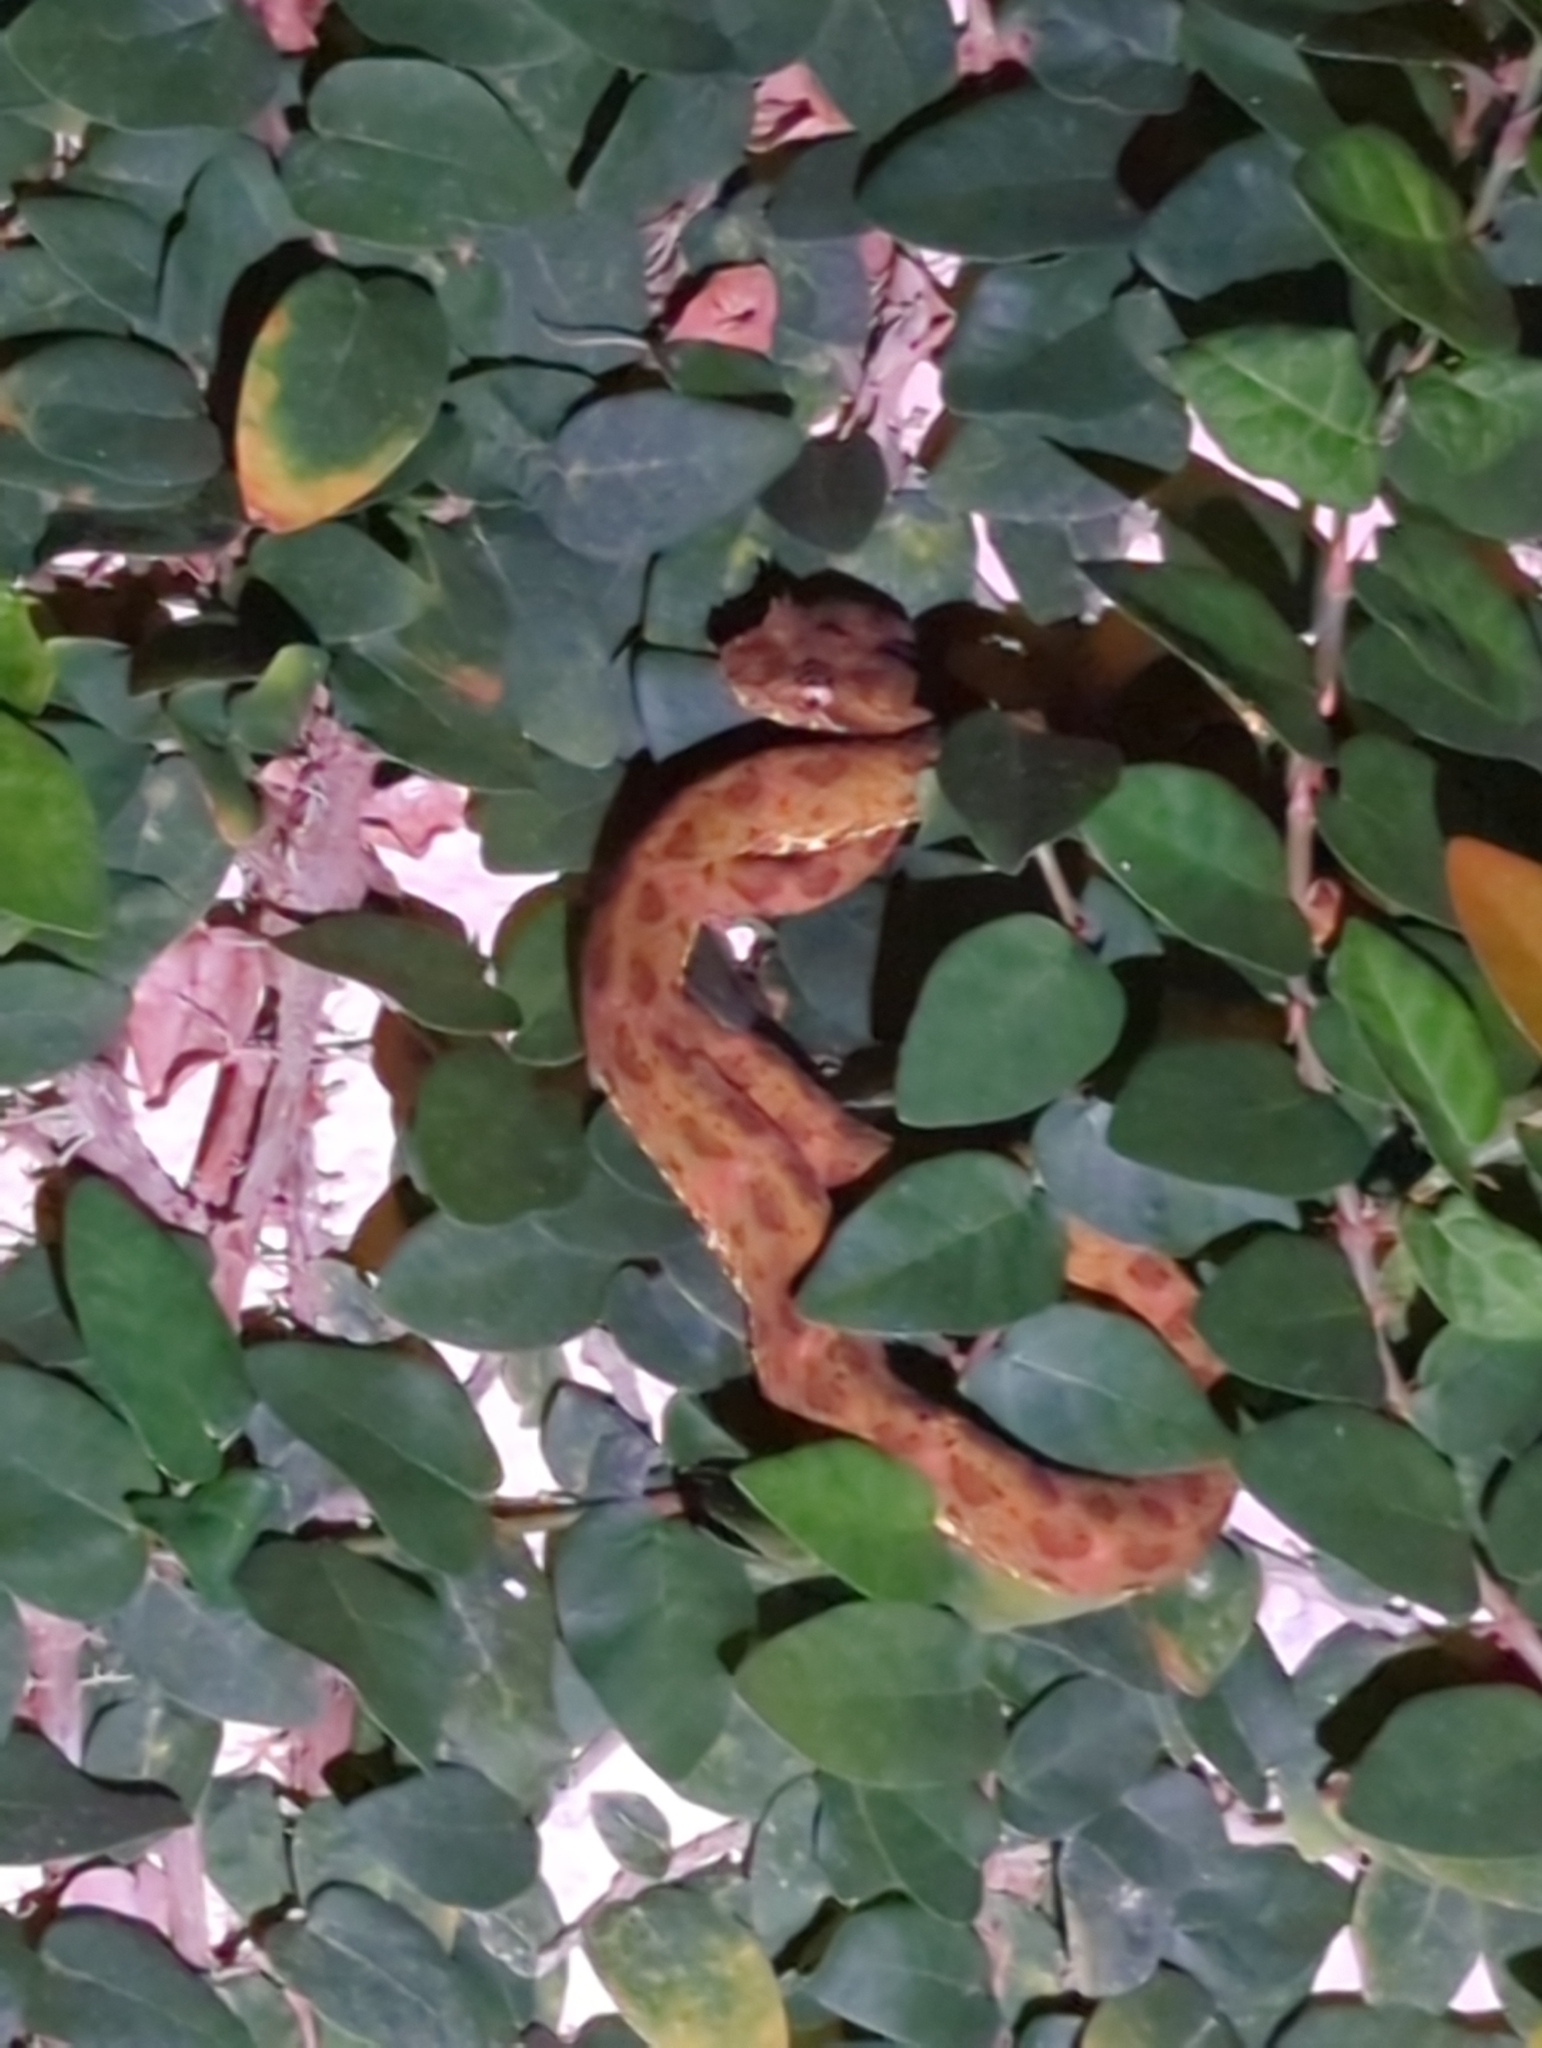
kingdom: Animalia
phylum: Chordata
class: Squamata
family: Viperidae
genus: Bothriechis
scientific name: Bothriechis schlegelii
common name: Eyelash viper
